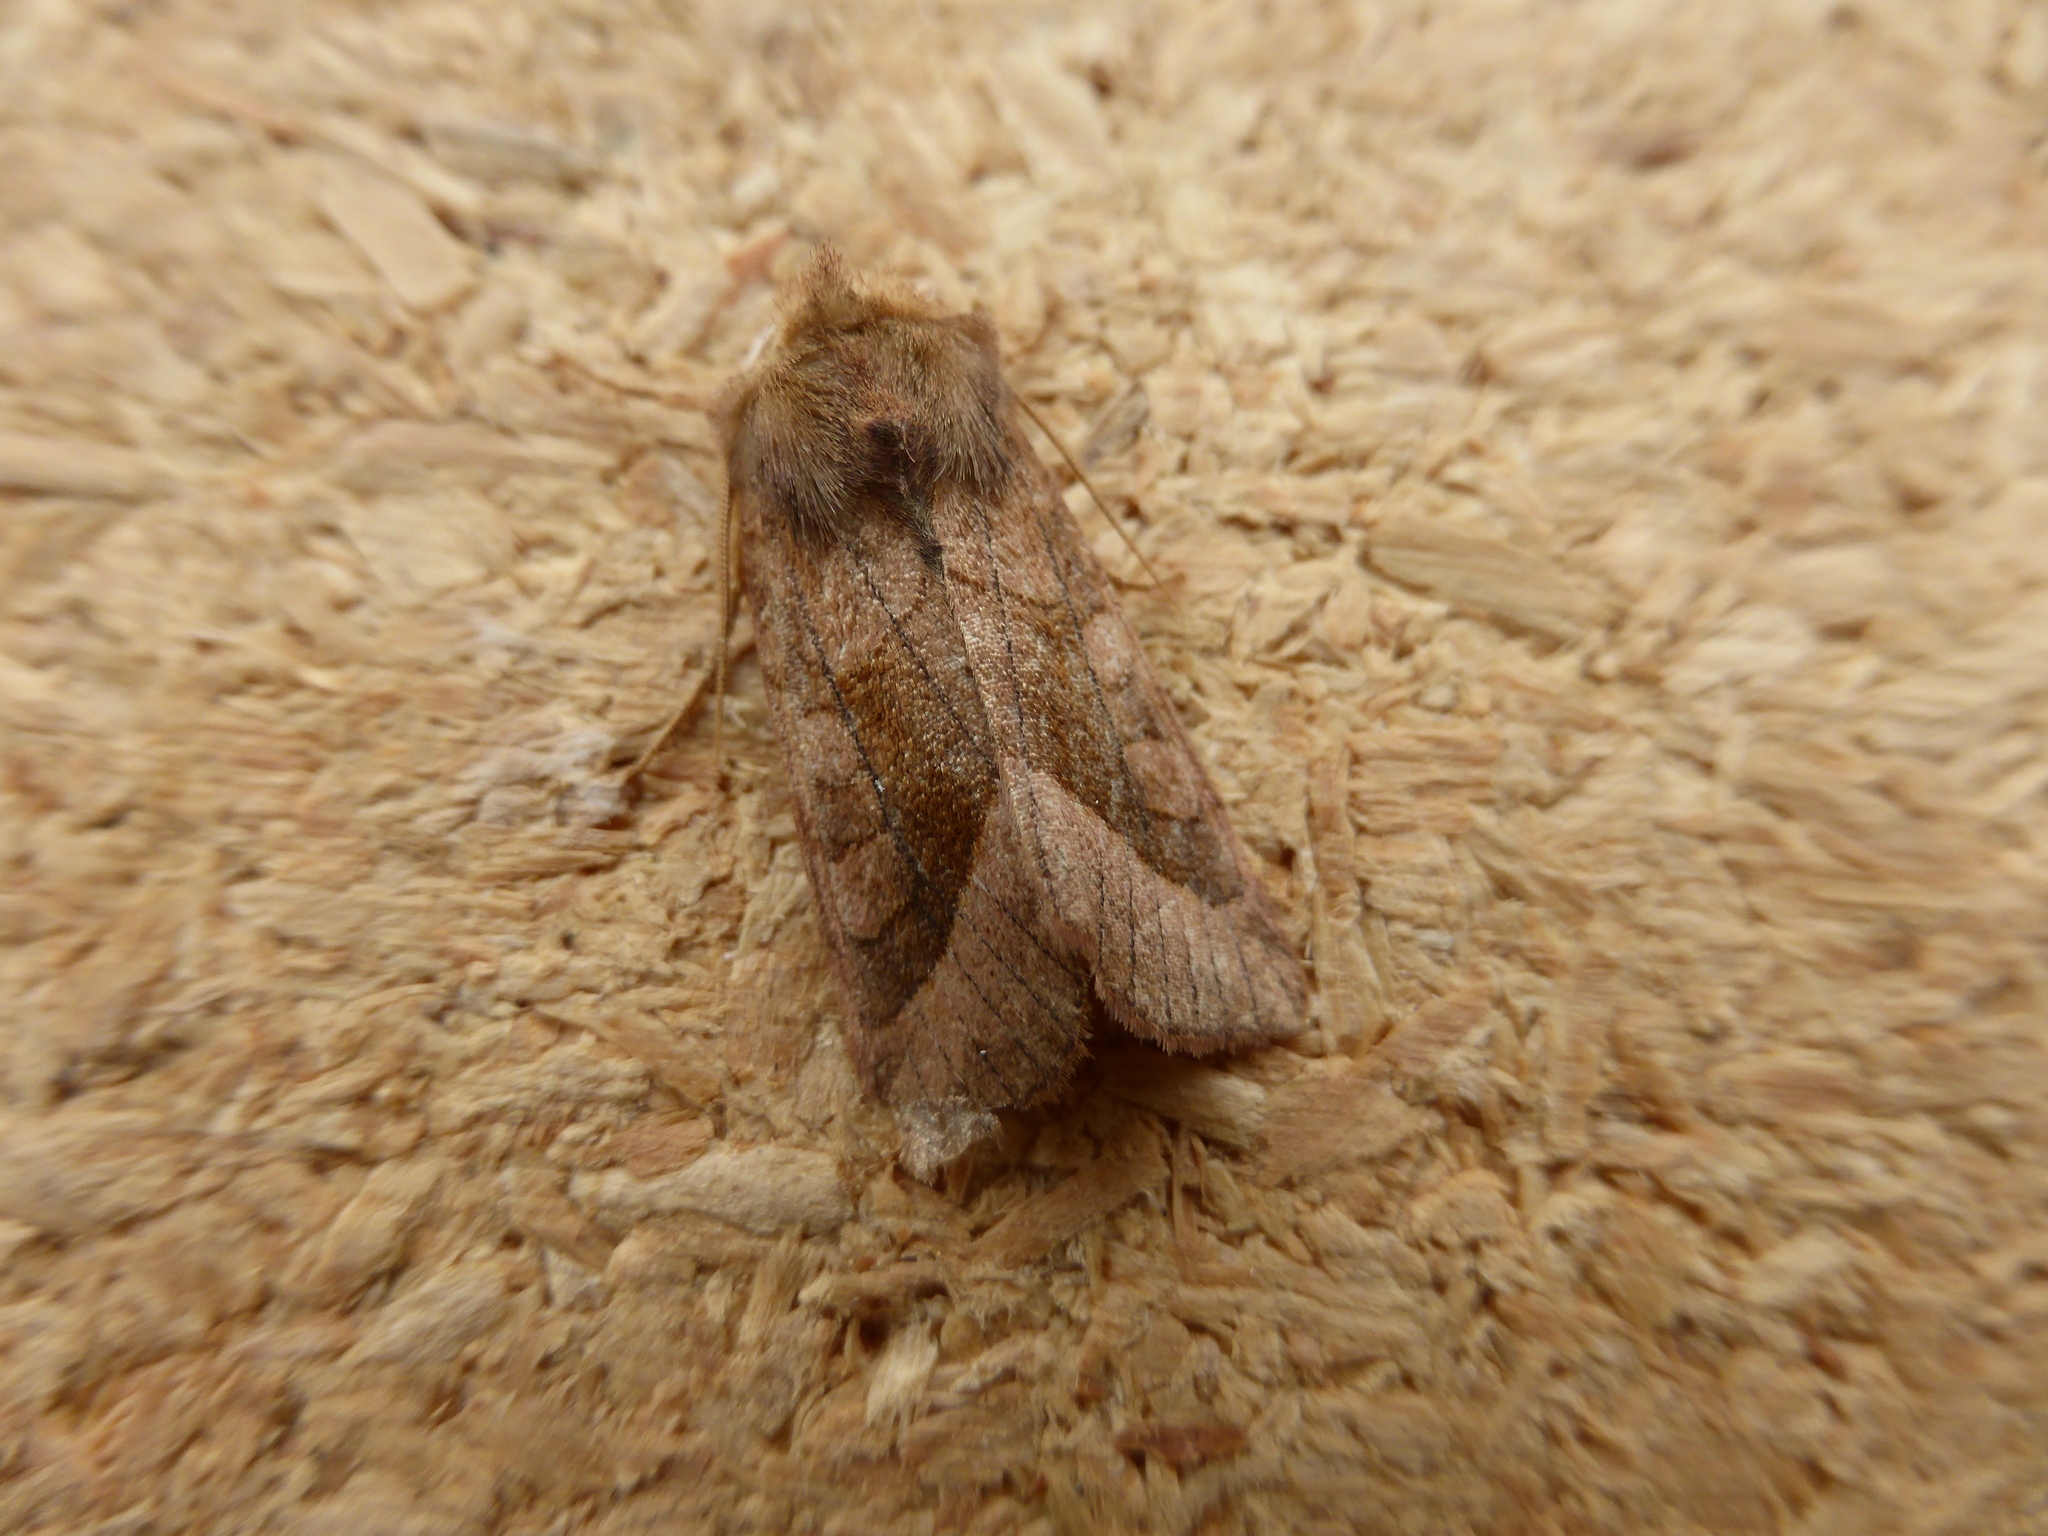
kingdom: Animalia
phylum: Arthropoda
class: Insecta
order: Lepidoptera
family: Noctuidae
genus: Hydraecia
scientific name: Hydraecia micacea
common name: Rosy rustic
